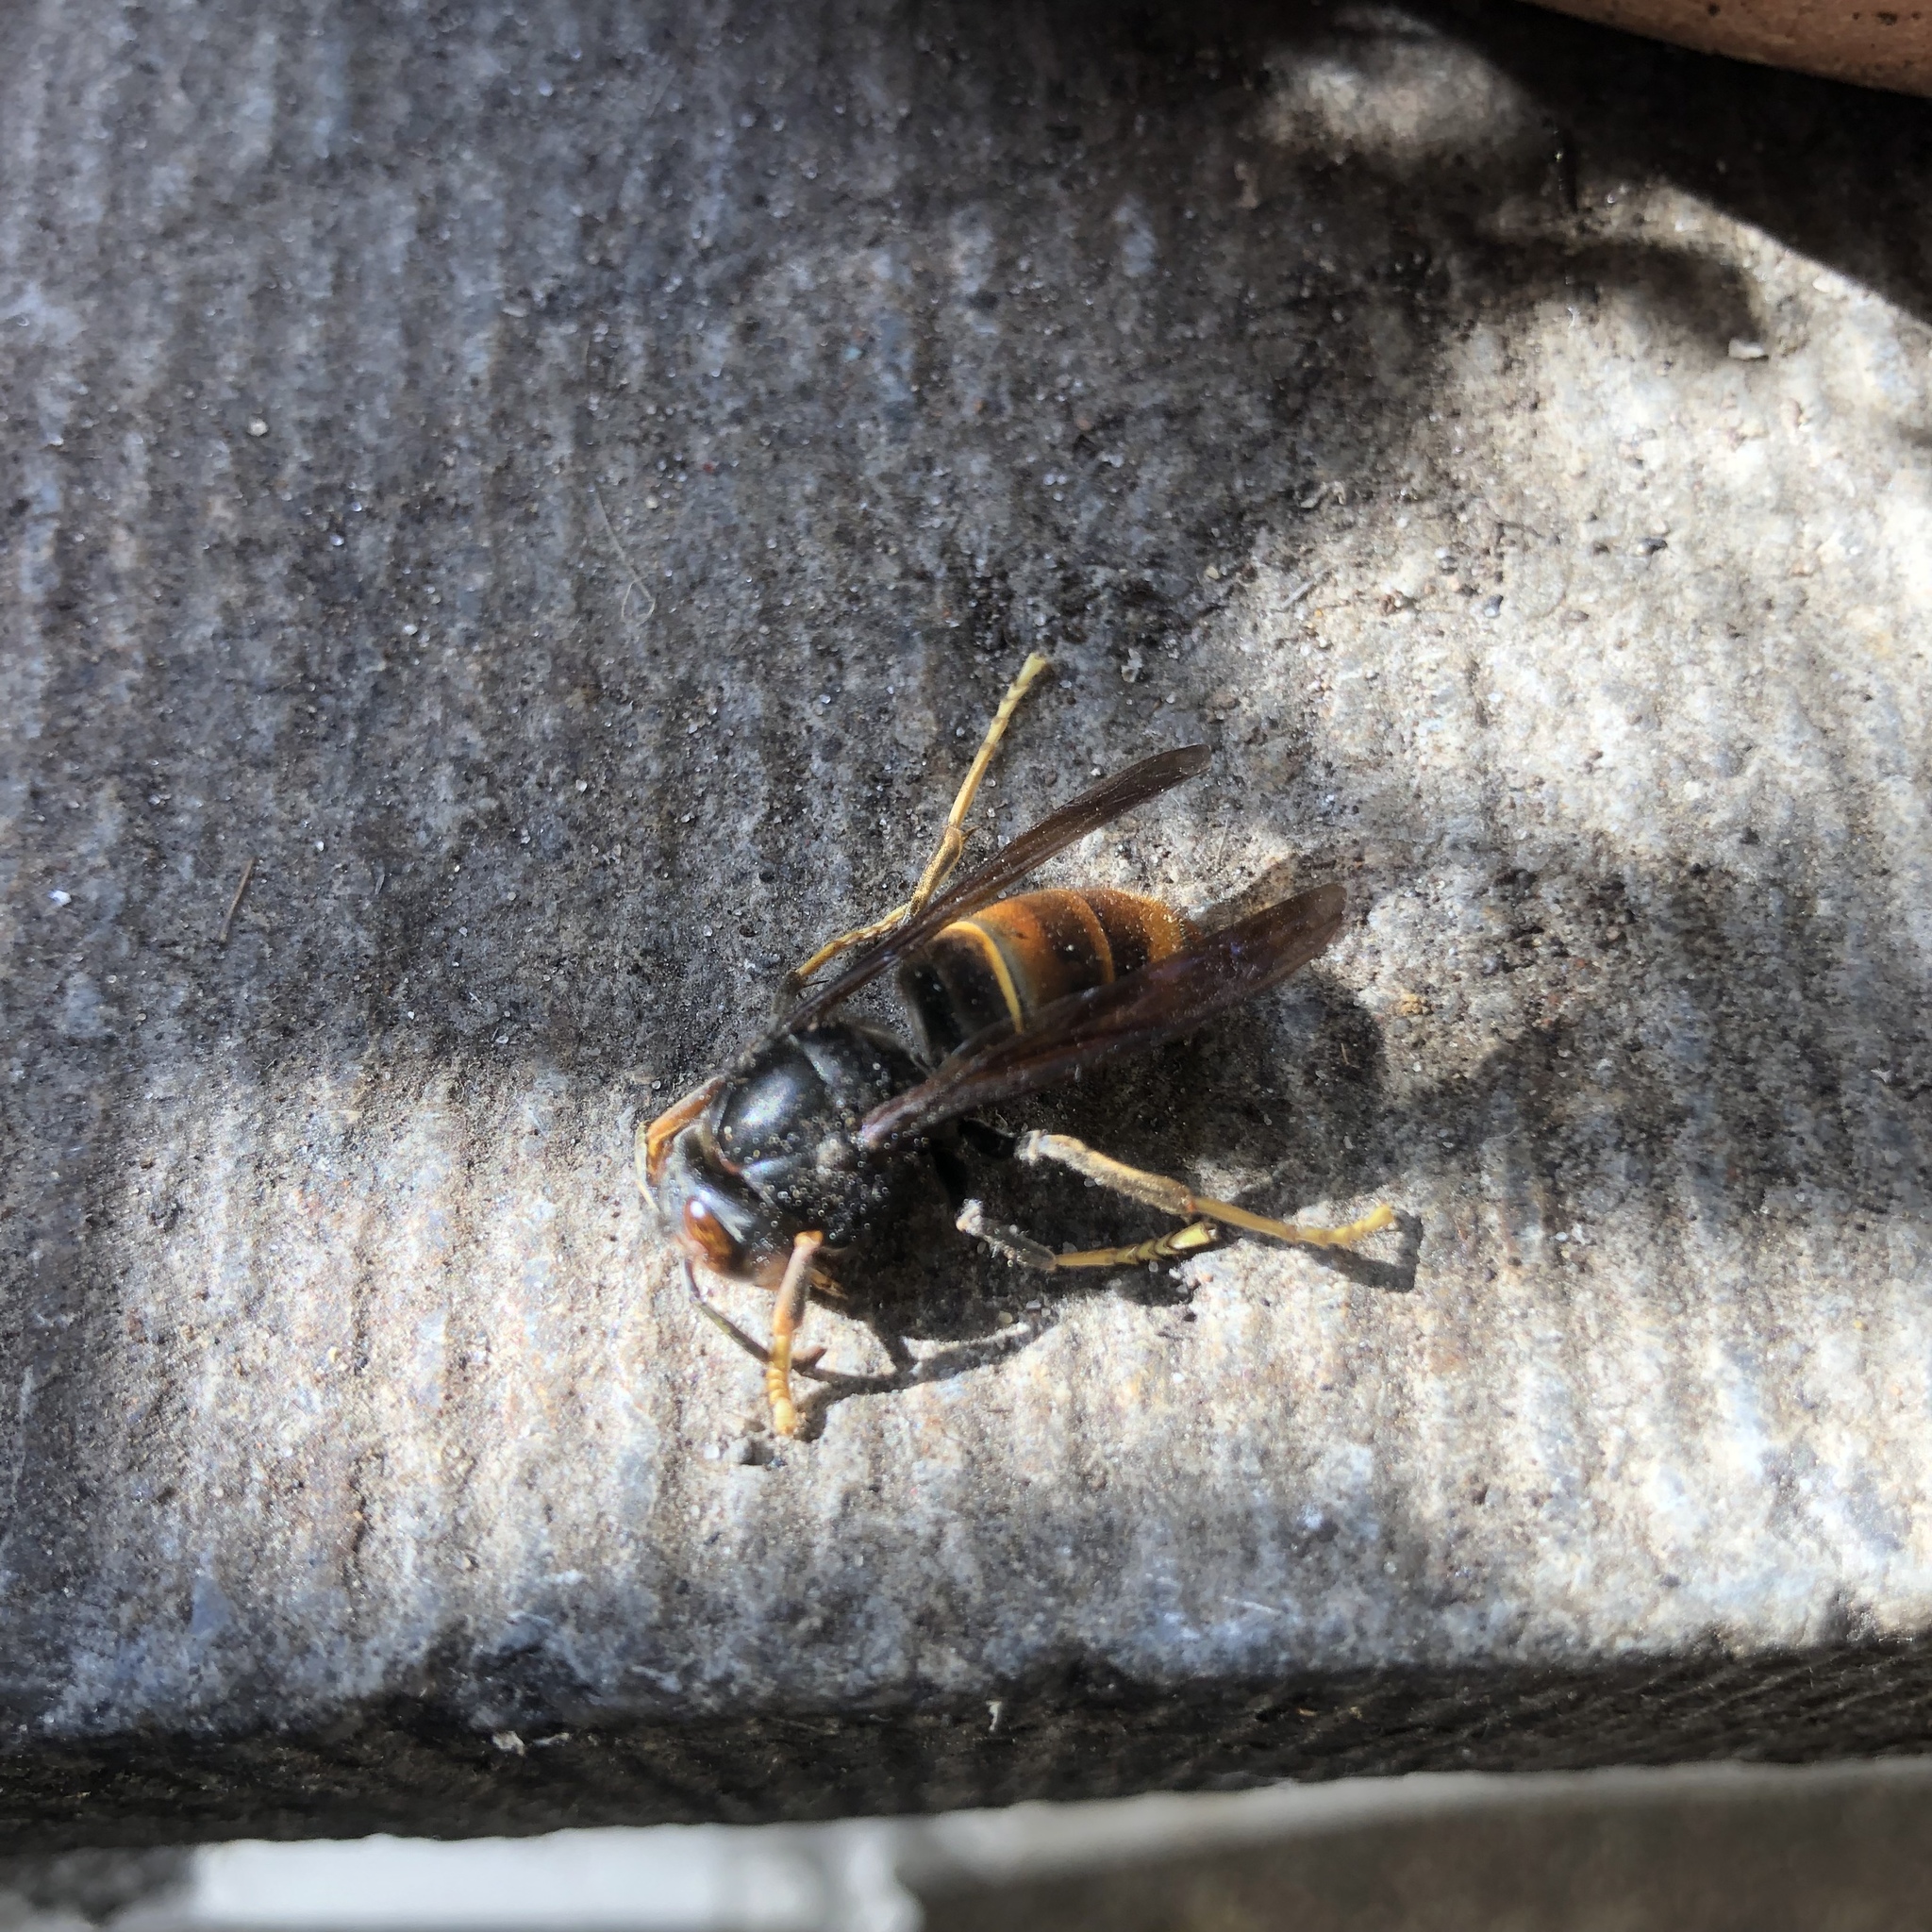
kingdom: Animalia
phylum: Arthropoda
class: Insecta
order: Hymenoptera
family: Vespidae
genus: Vespa
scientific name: Vespa velutina
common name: Asian hornet
